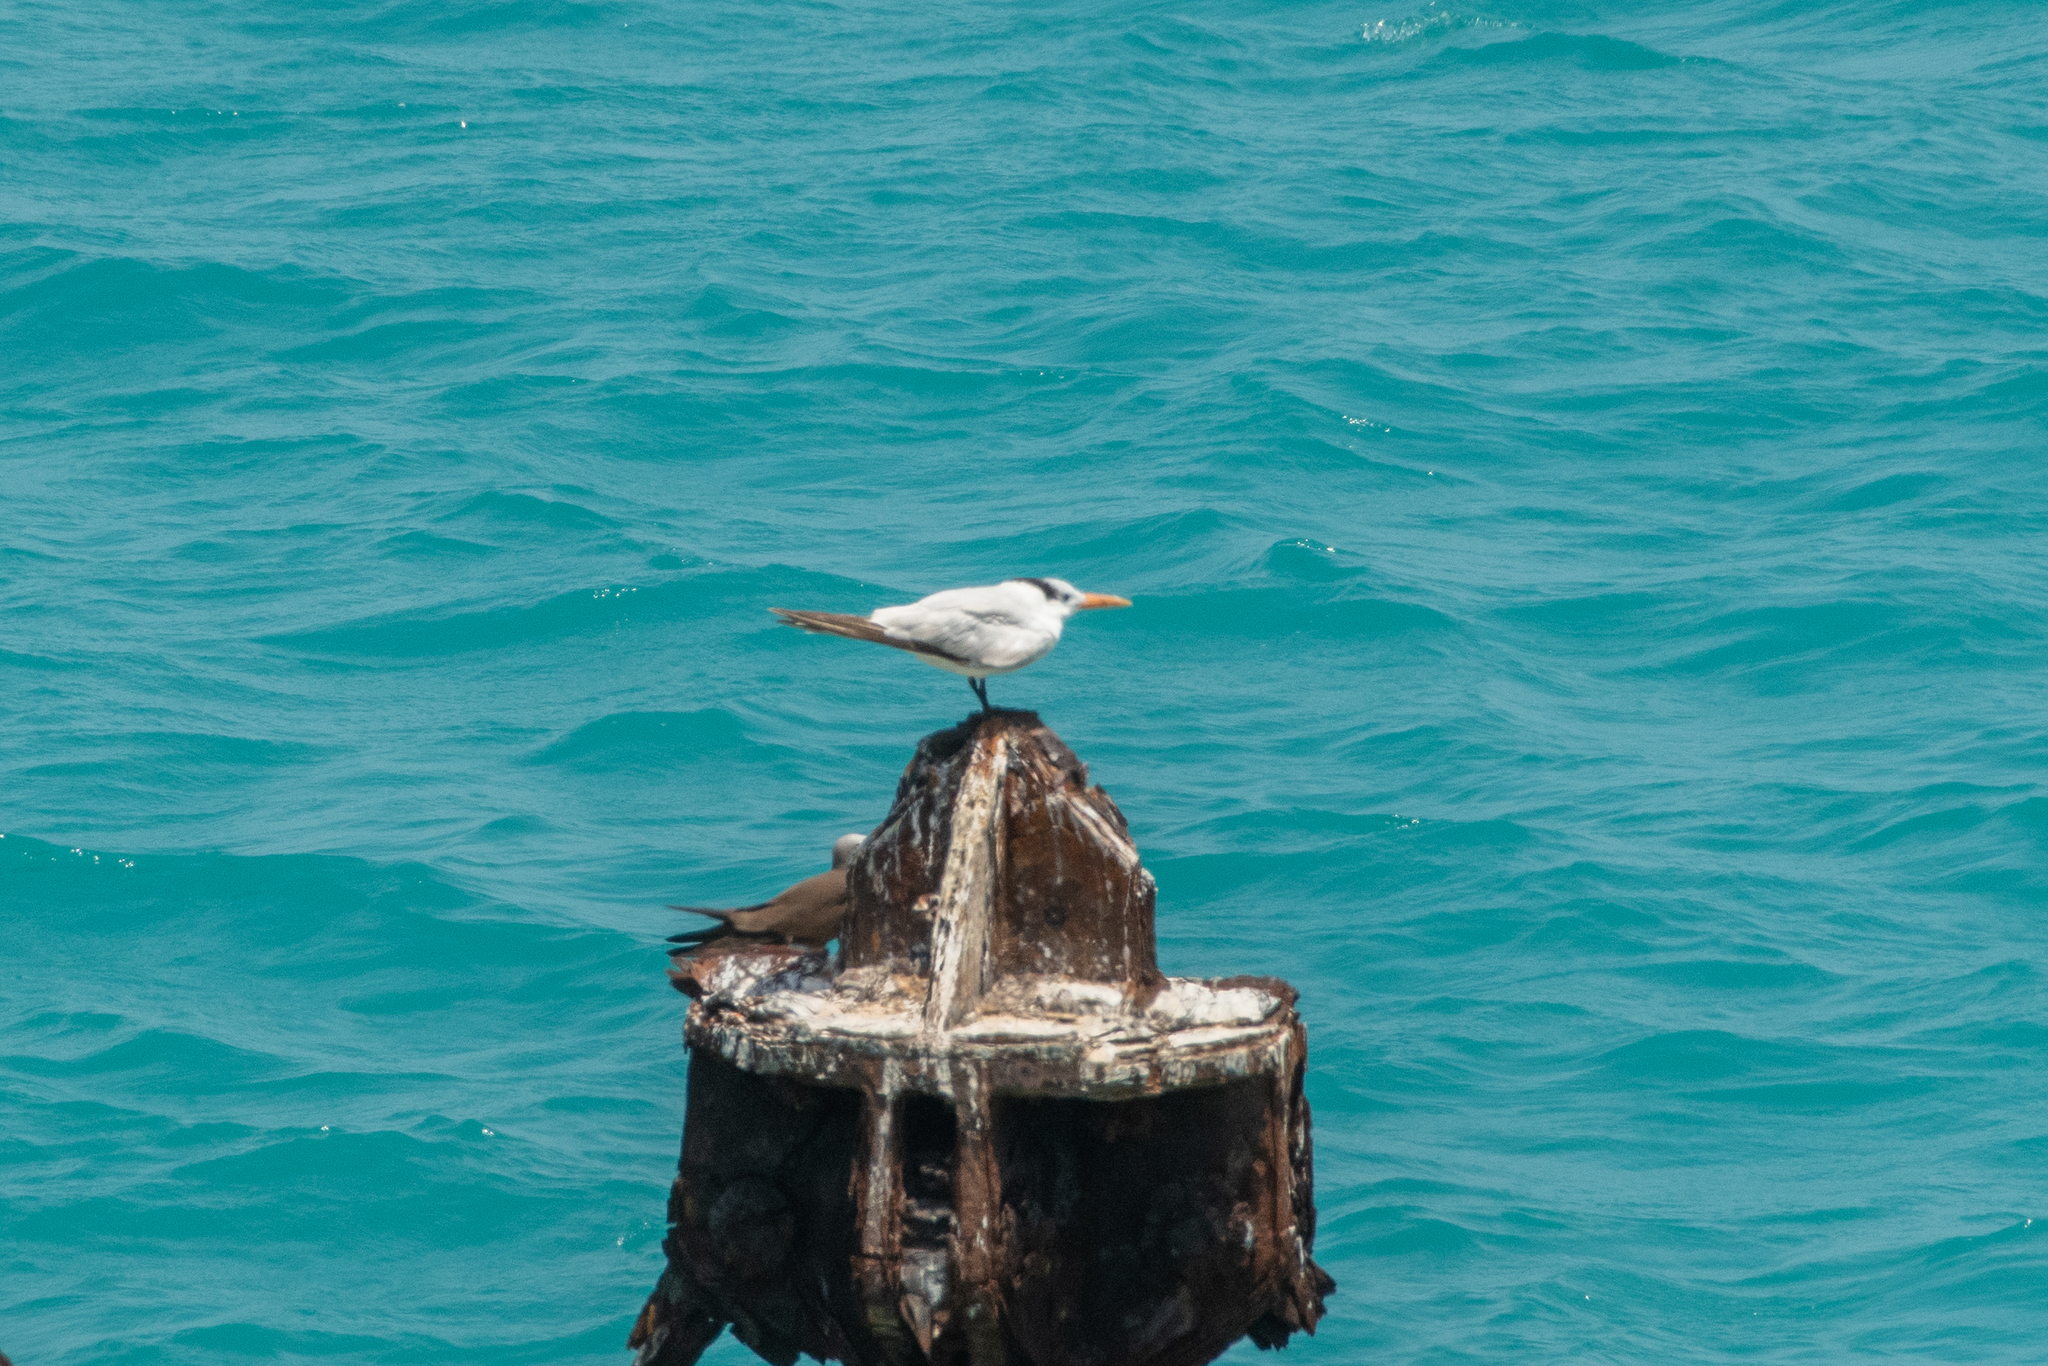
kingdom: Animalia
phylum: Chordata
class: Aves
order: Charadriiformes
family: Laridae
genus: Thalasseus
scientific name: Thalasseus maximus
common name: Royal tern
